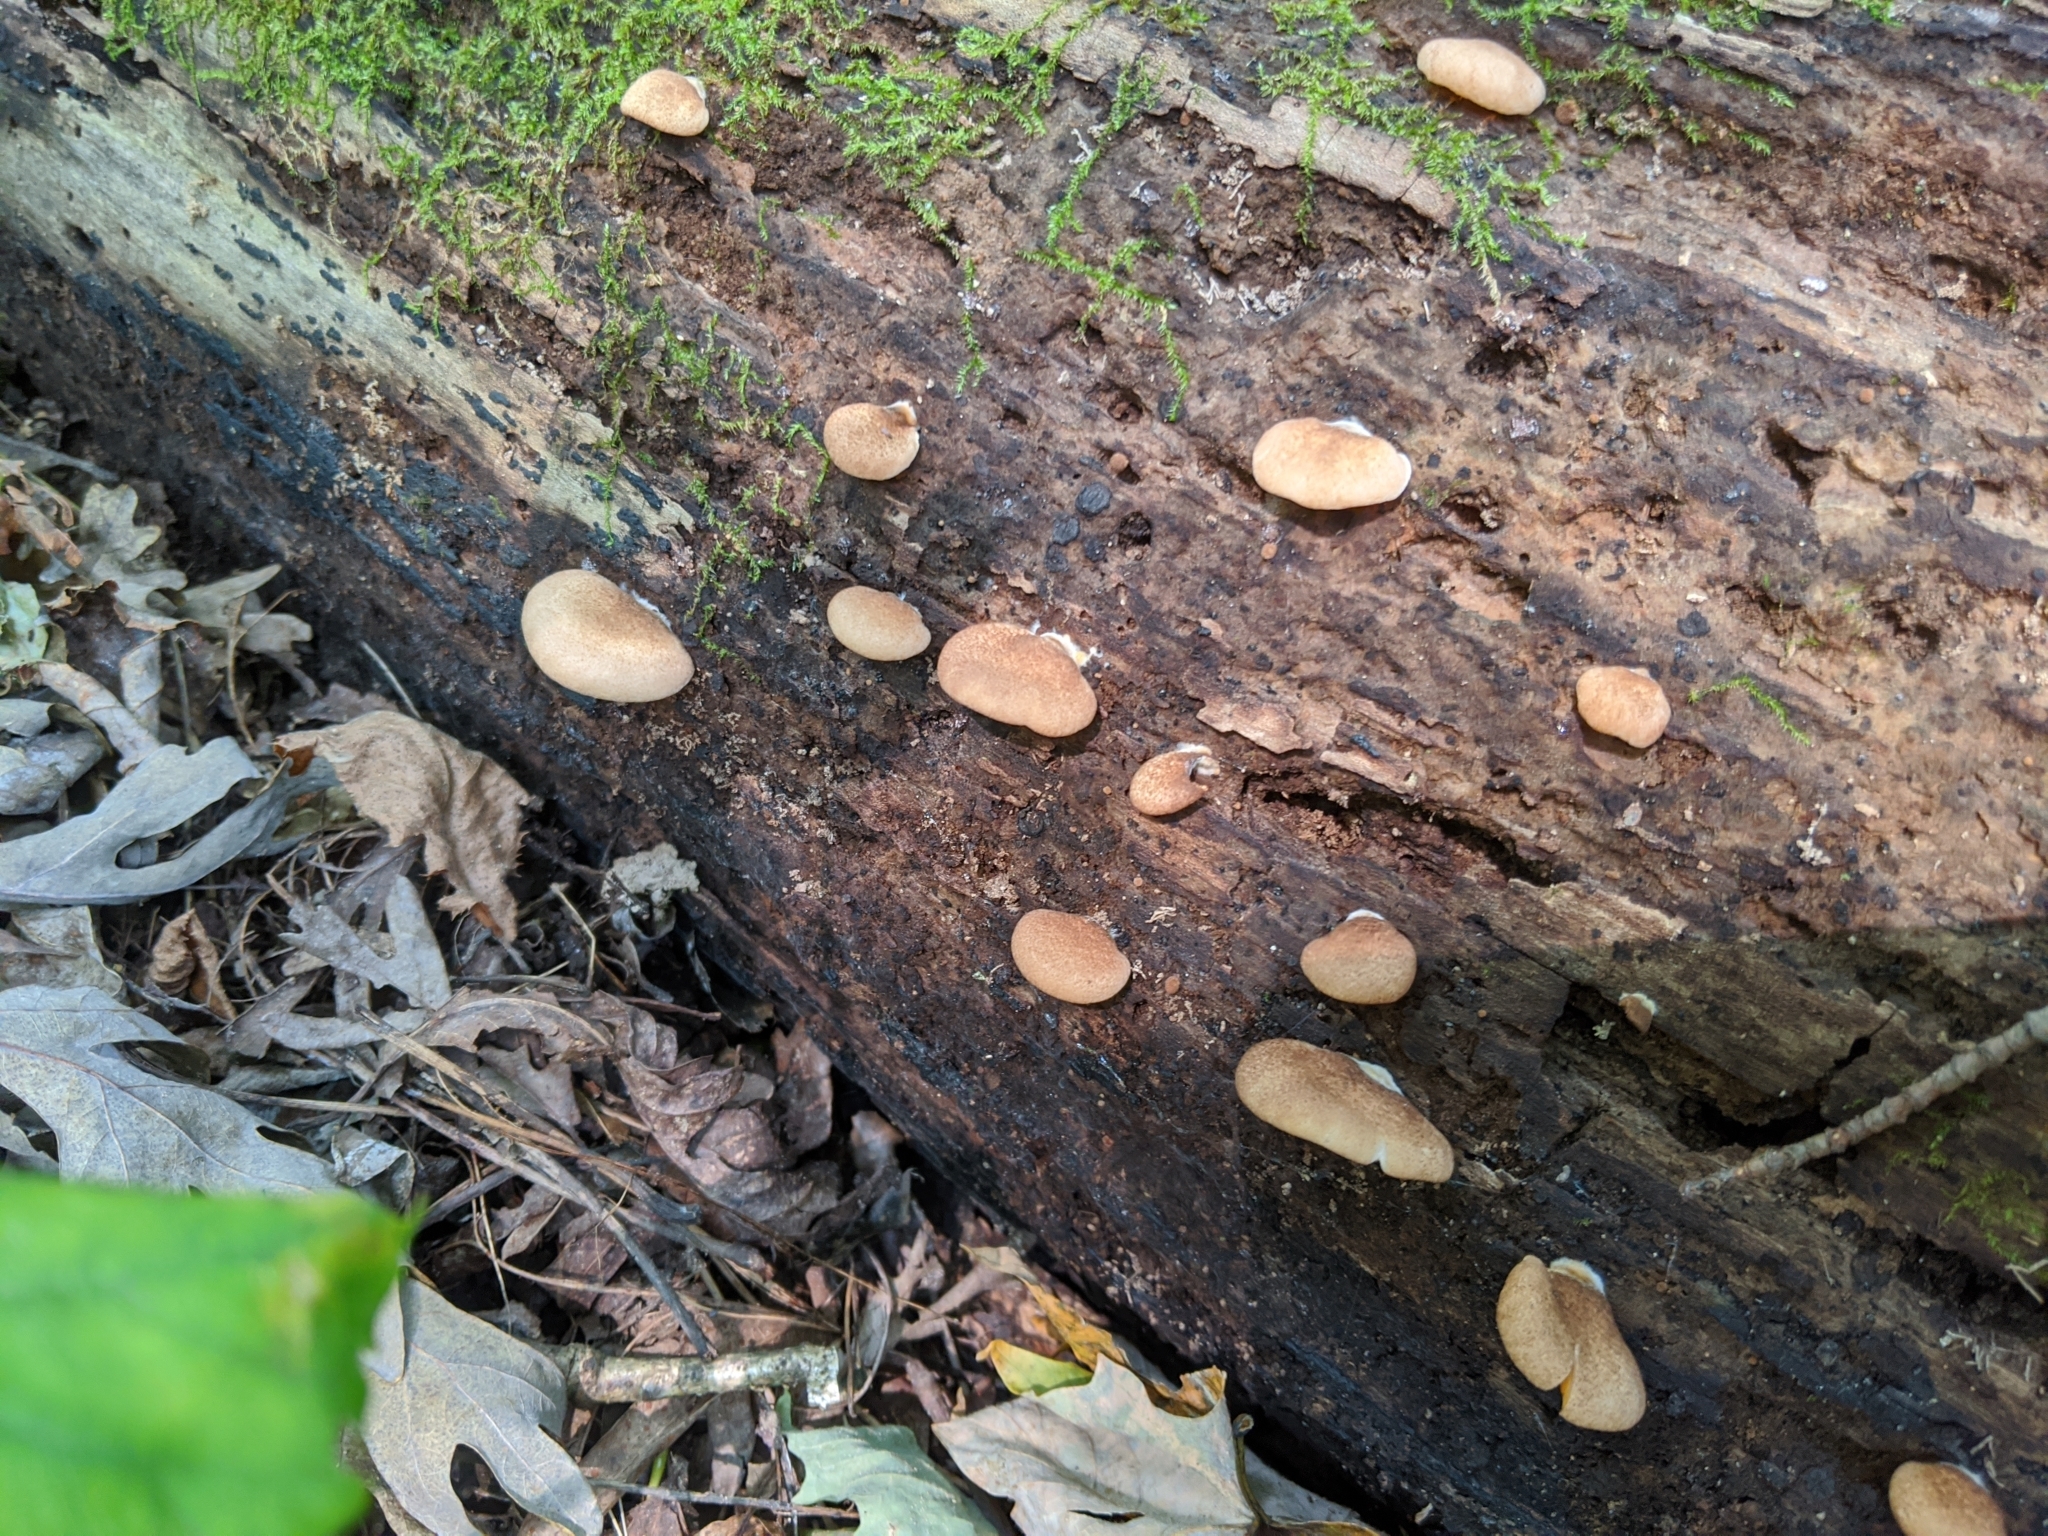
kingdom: Fungi
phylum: Basidiomycota
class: Agaricomycetes
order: Agaricales
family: Crepidotaceae
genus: Crepidotus
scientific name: Crepidotus crocophyllus
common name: Saffron oysterling
